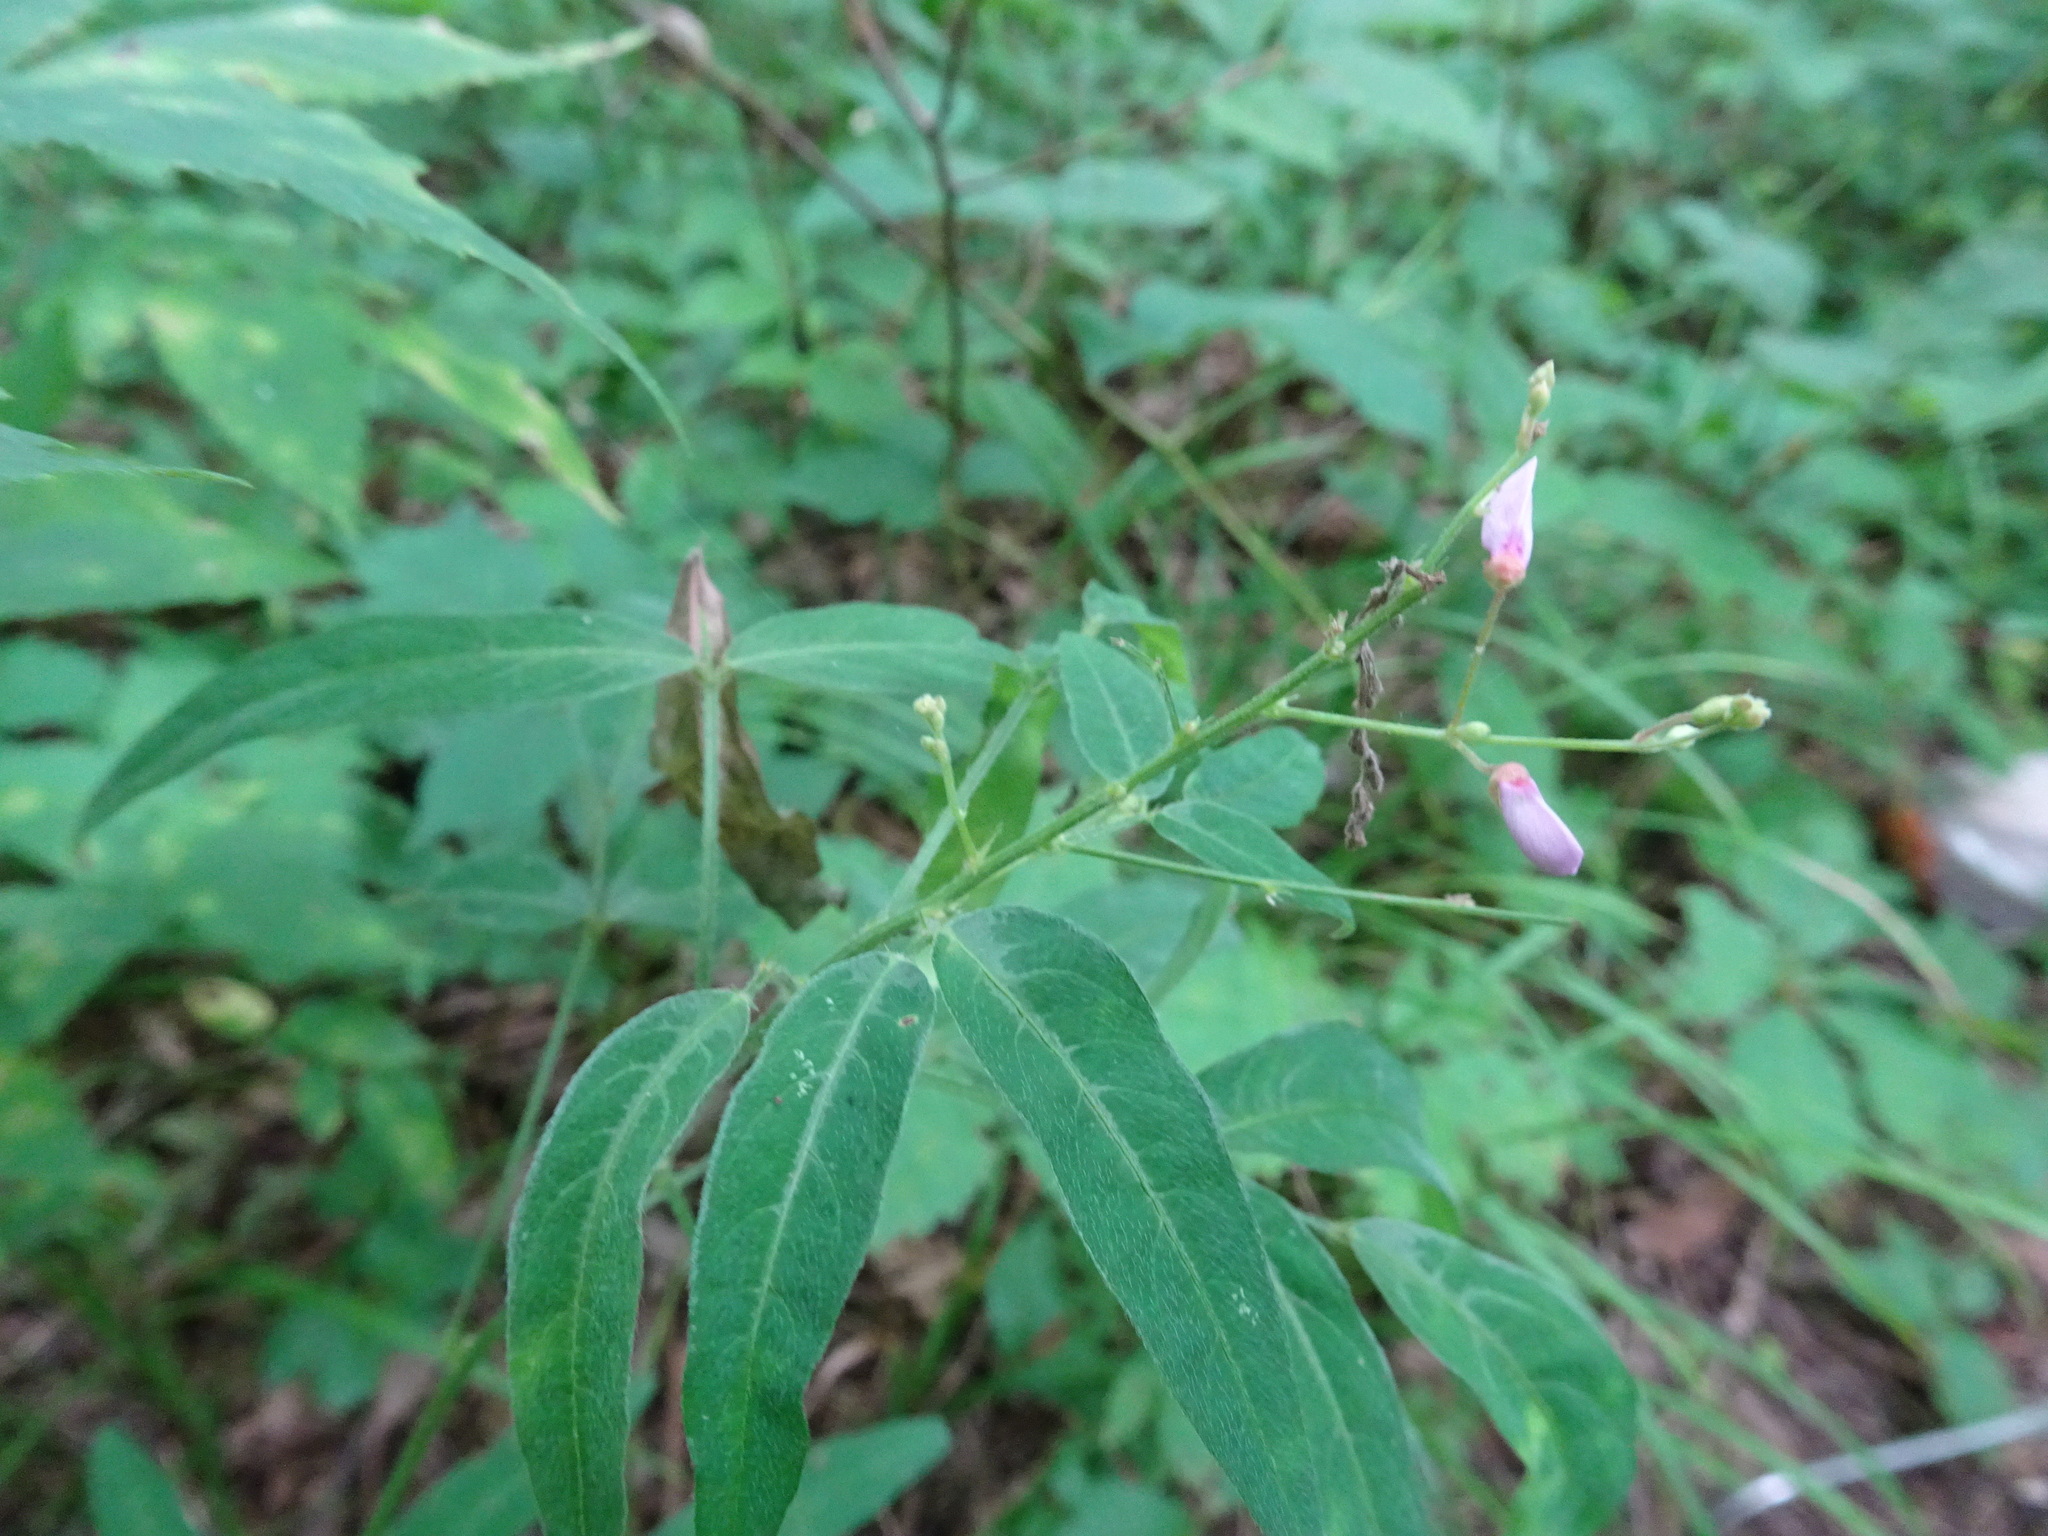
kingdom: Plantae
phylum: Tracheophyta
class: Magnoliopsida
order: Fabales
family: Fabaceae
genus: Desmodium
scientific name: Desmodium paniculatum
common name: Panicled tick-clover
